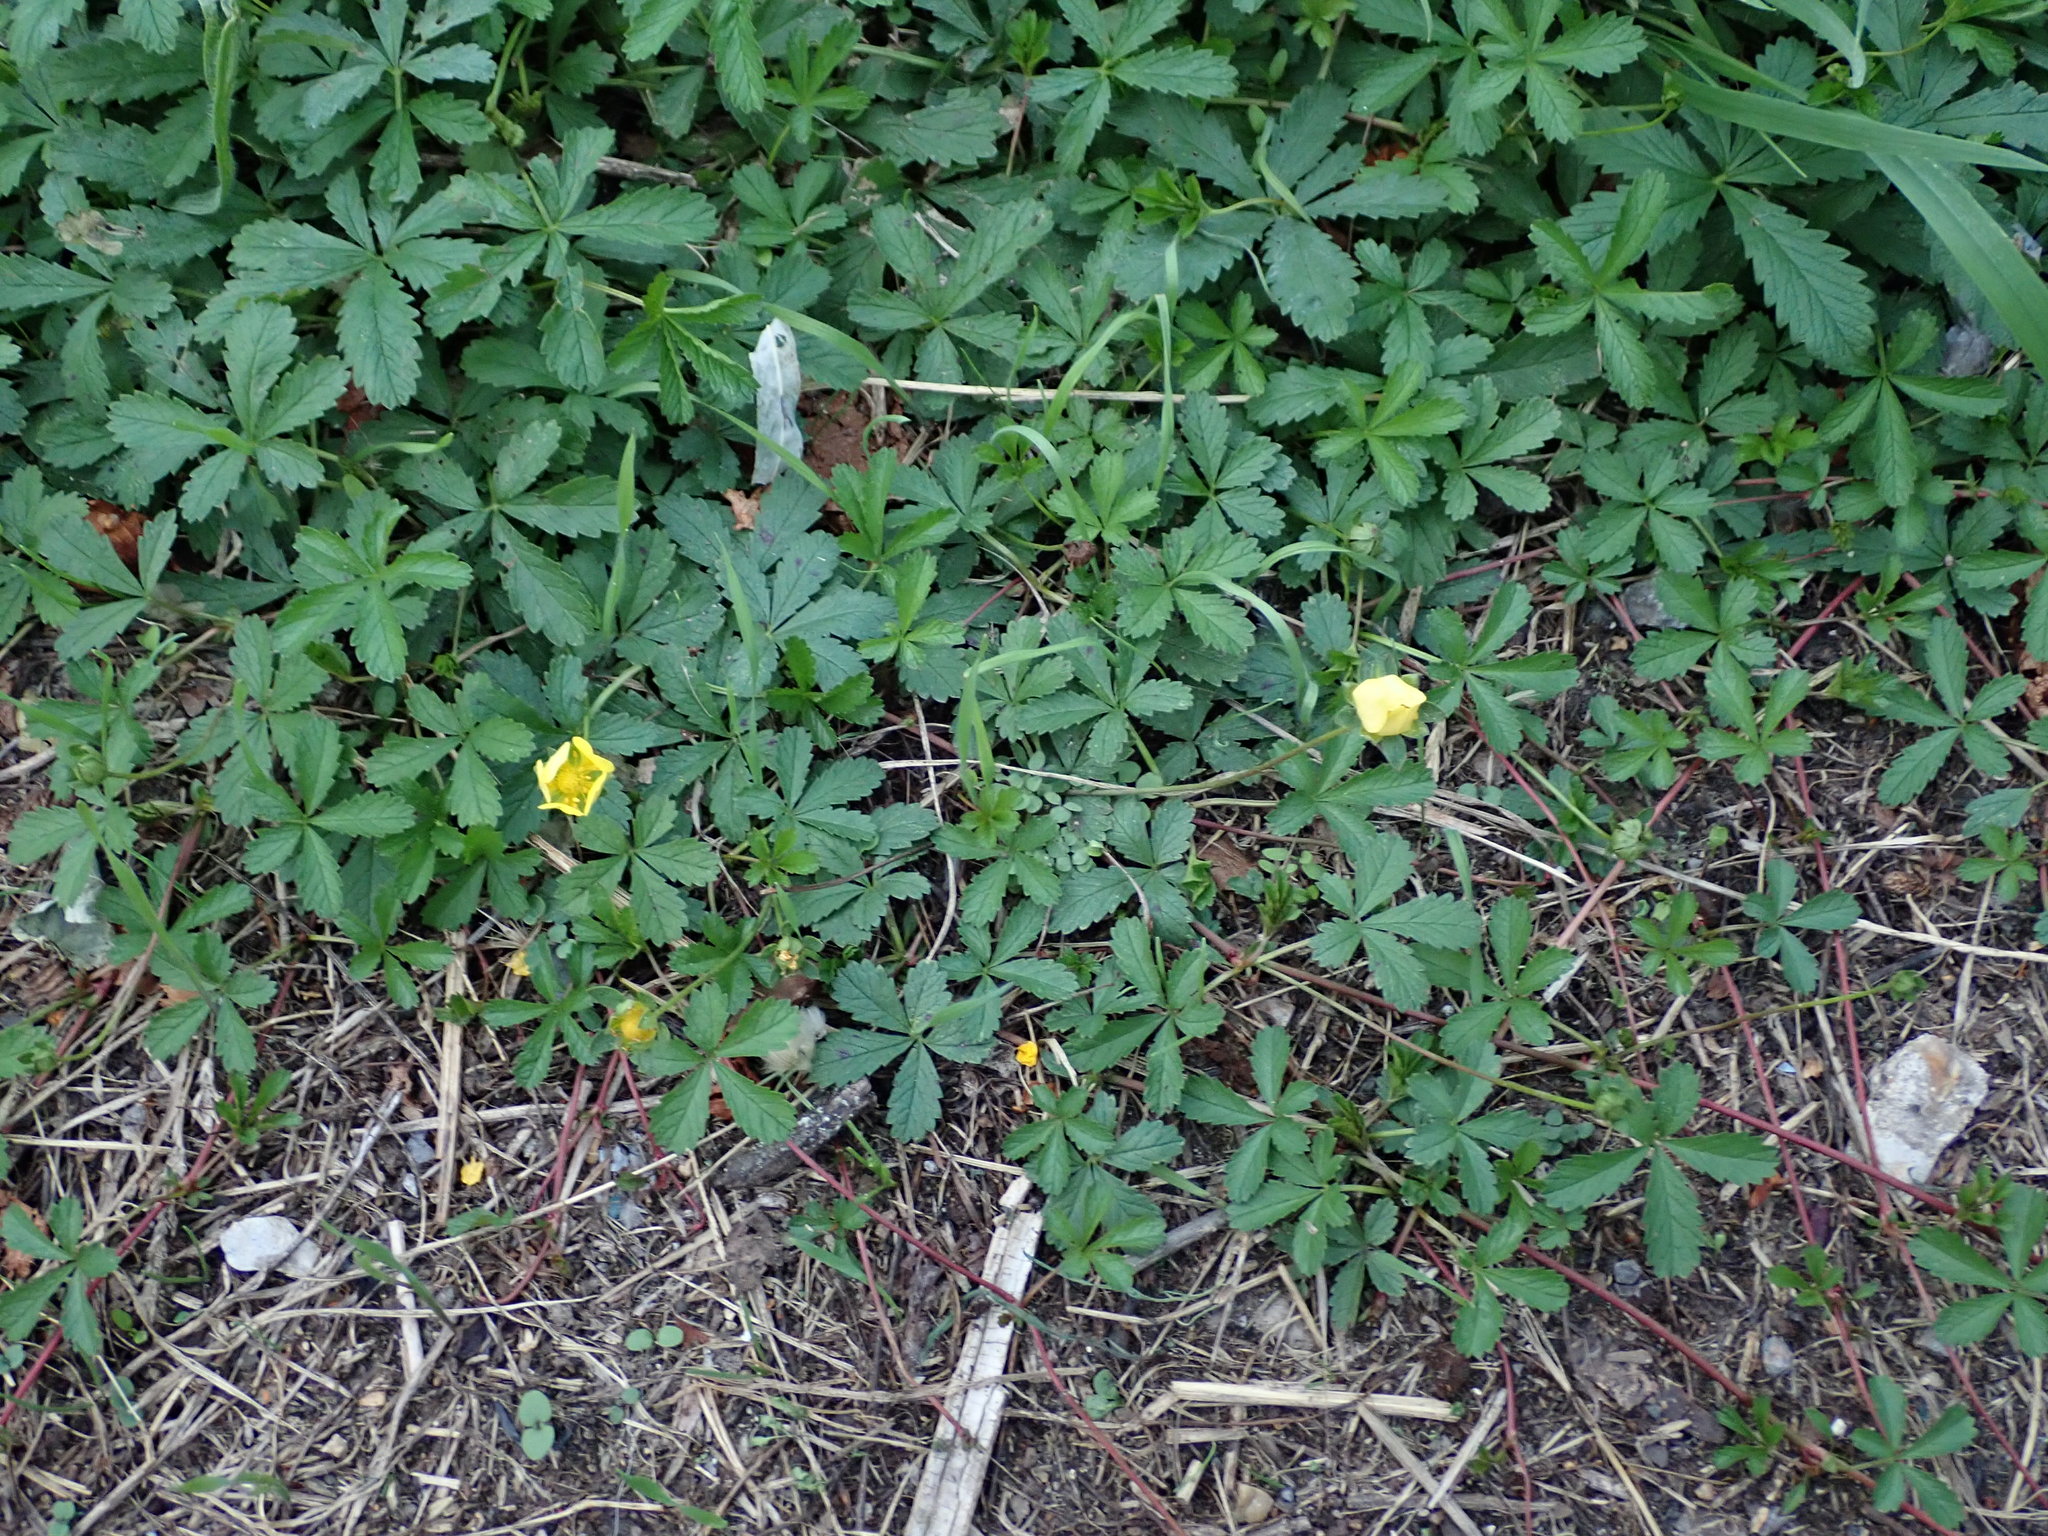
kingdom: Plantae
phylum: Tracheophyta
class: Magnoliopsida
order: Rosales
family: Rosaceae
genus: Potentilla
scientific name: Potentilla reptans
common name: Creeping cinquefoil
